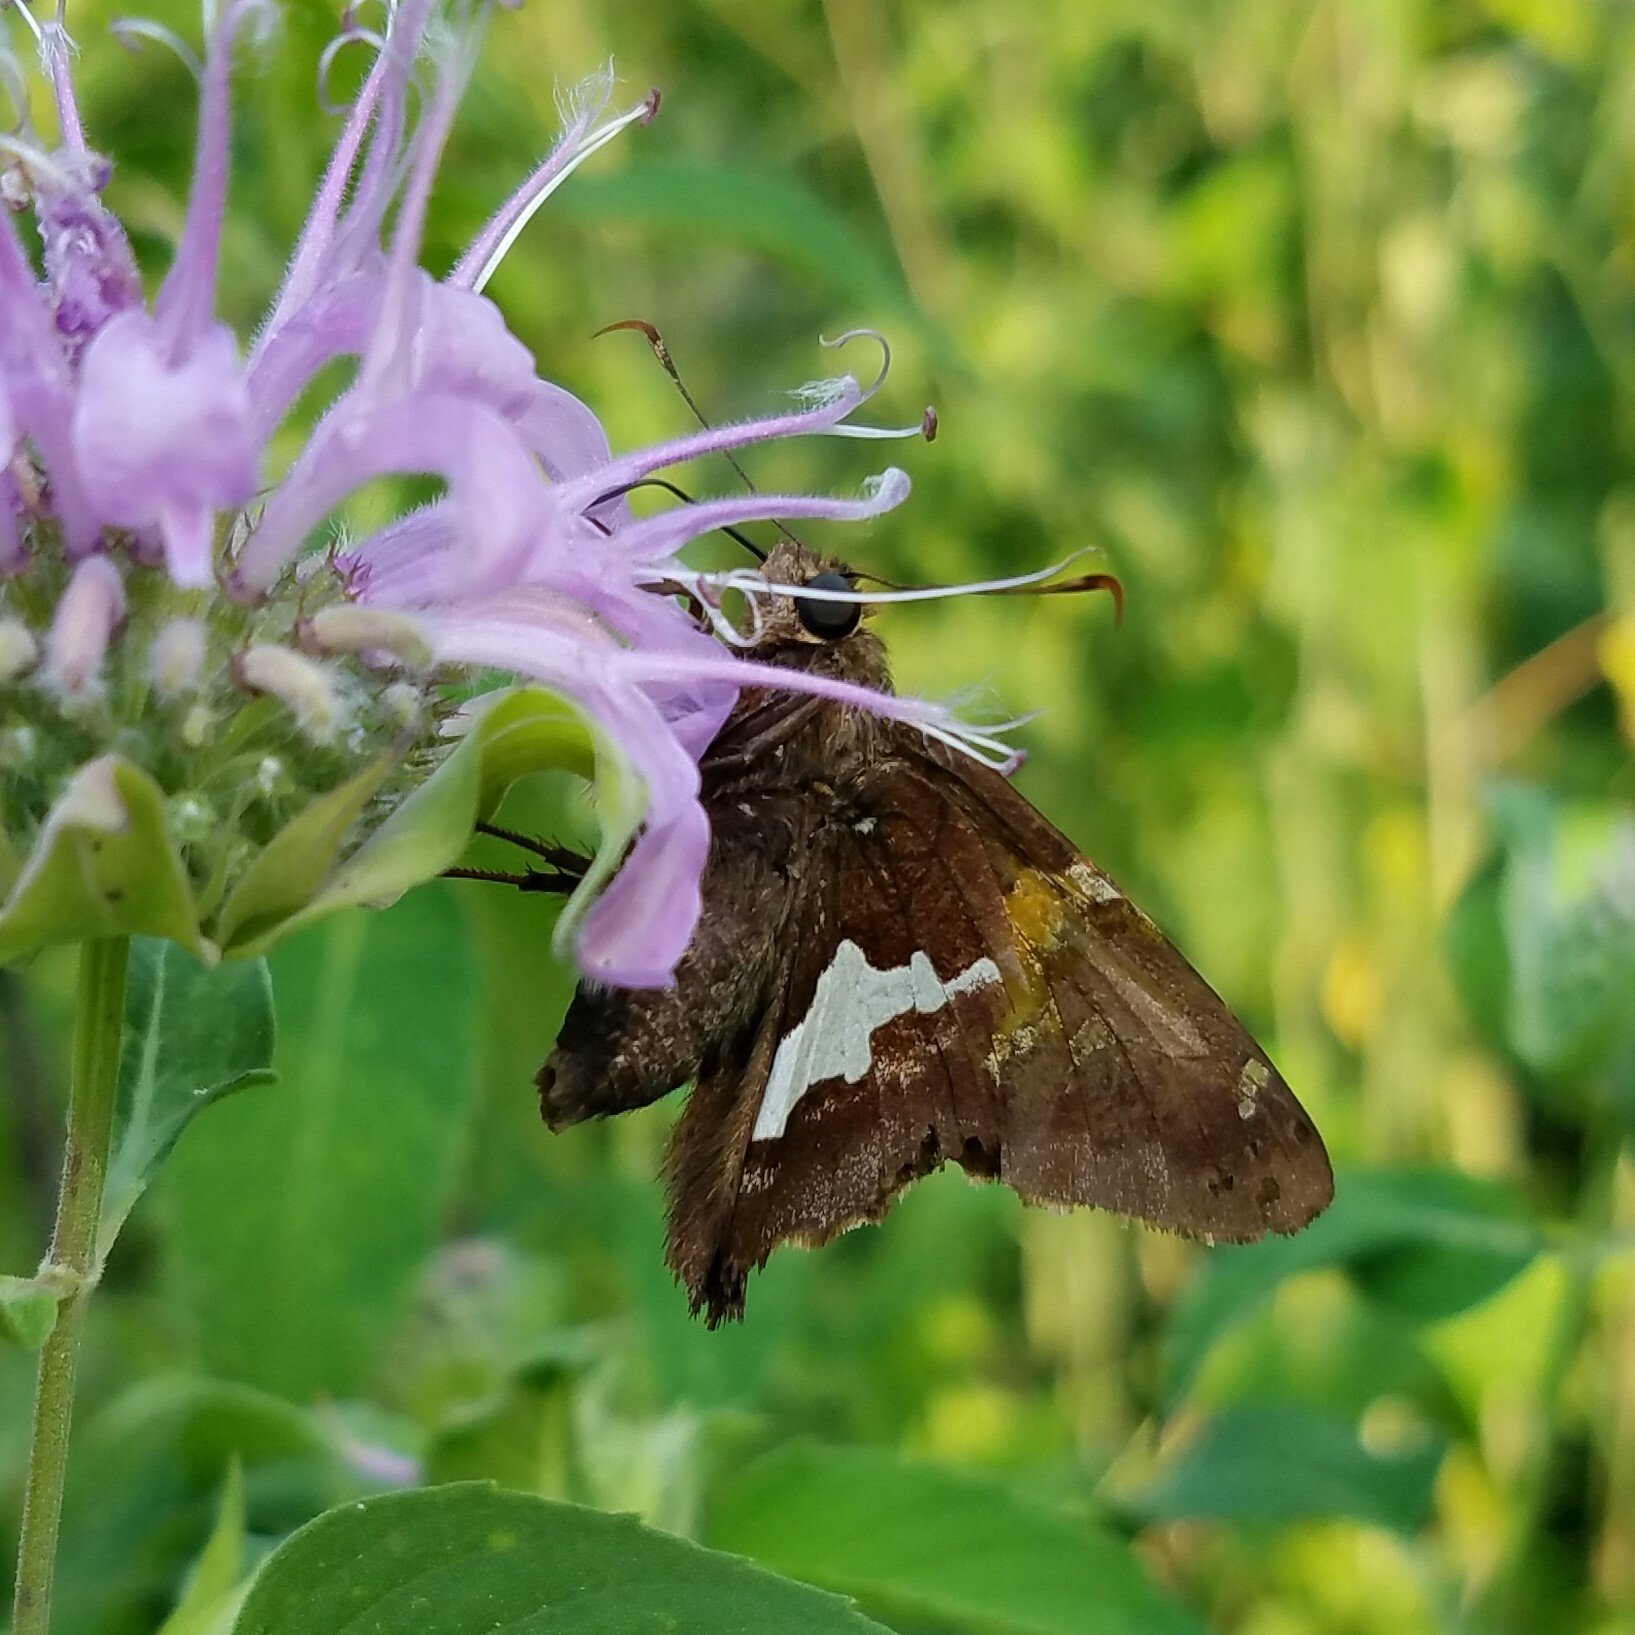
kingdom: Animalia
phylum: Arthropoda
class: Insecta
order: Lepidoptera
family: Hesperiidae
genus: Epargyreus
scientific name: Epargyreus clarus
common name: Silver-spotted skipper
